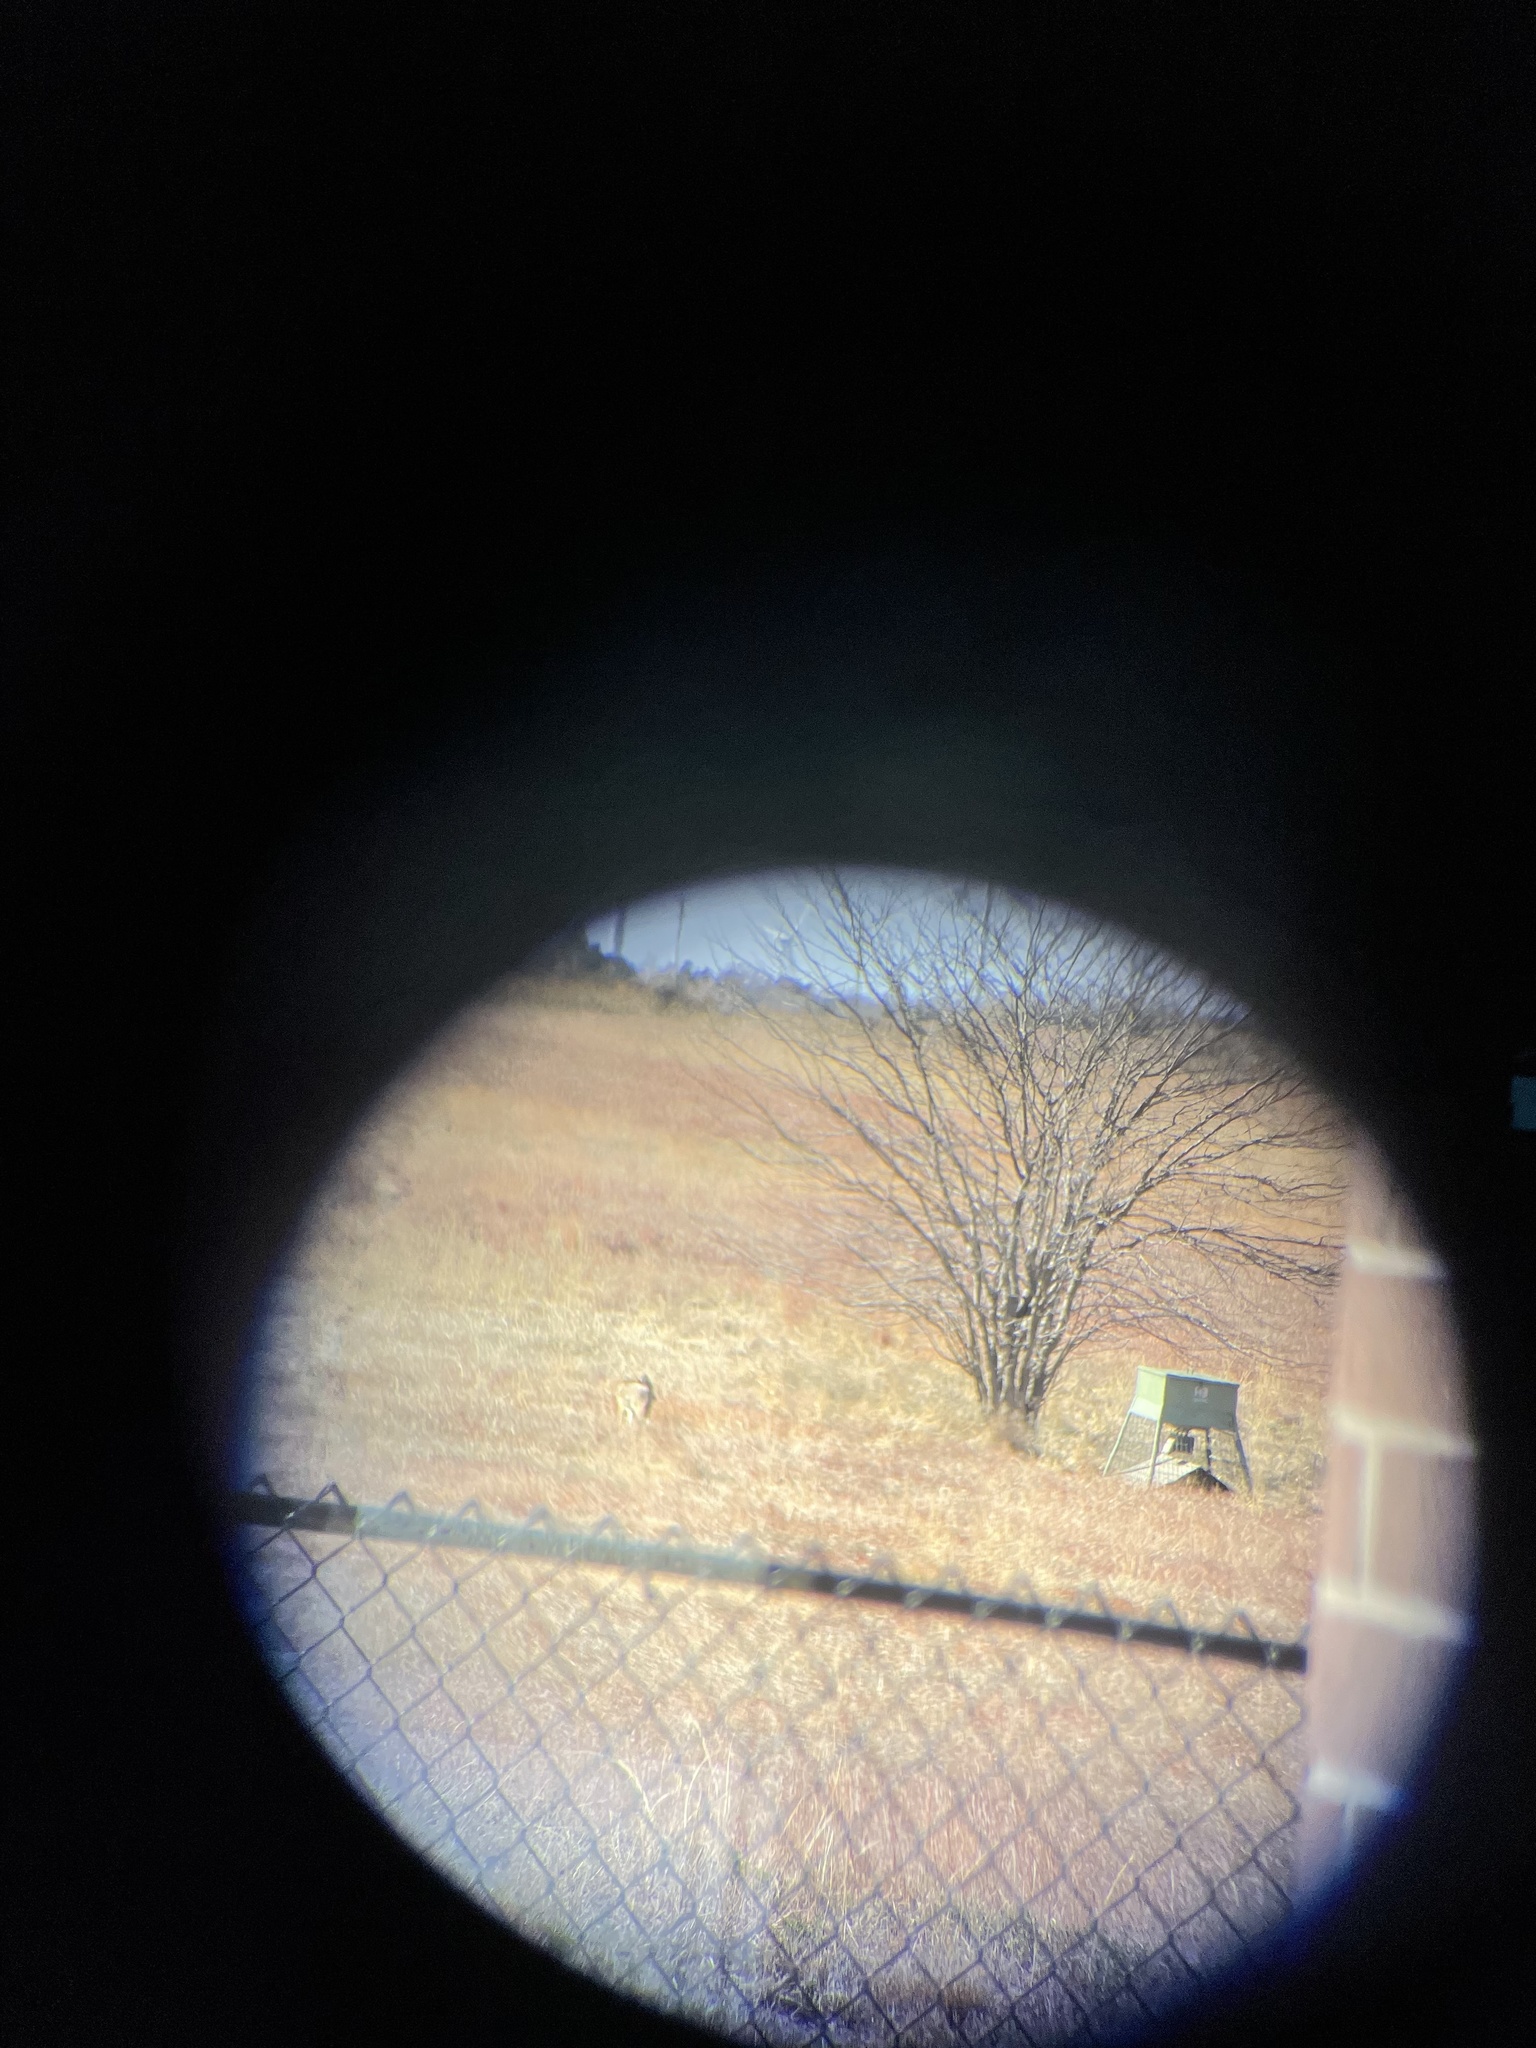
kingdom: Animalia
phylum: Chordata
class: Mammalia
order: Carnivora
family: Canidae
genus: Canis
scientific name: Canis latrans
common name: Coyote
